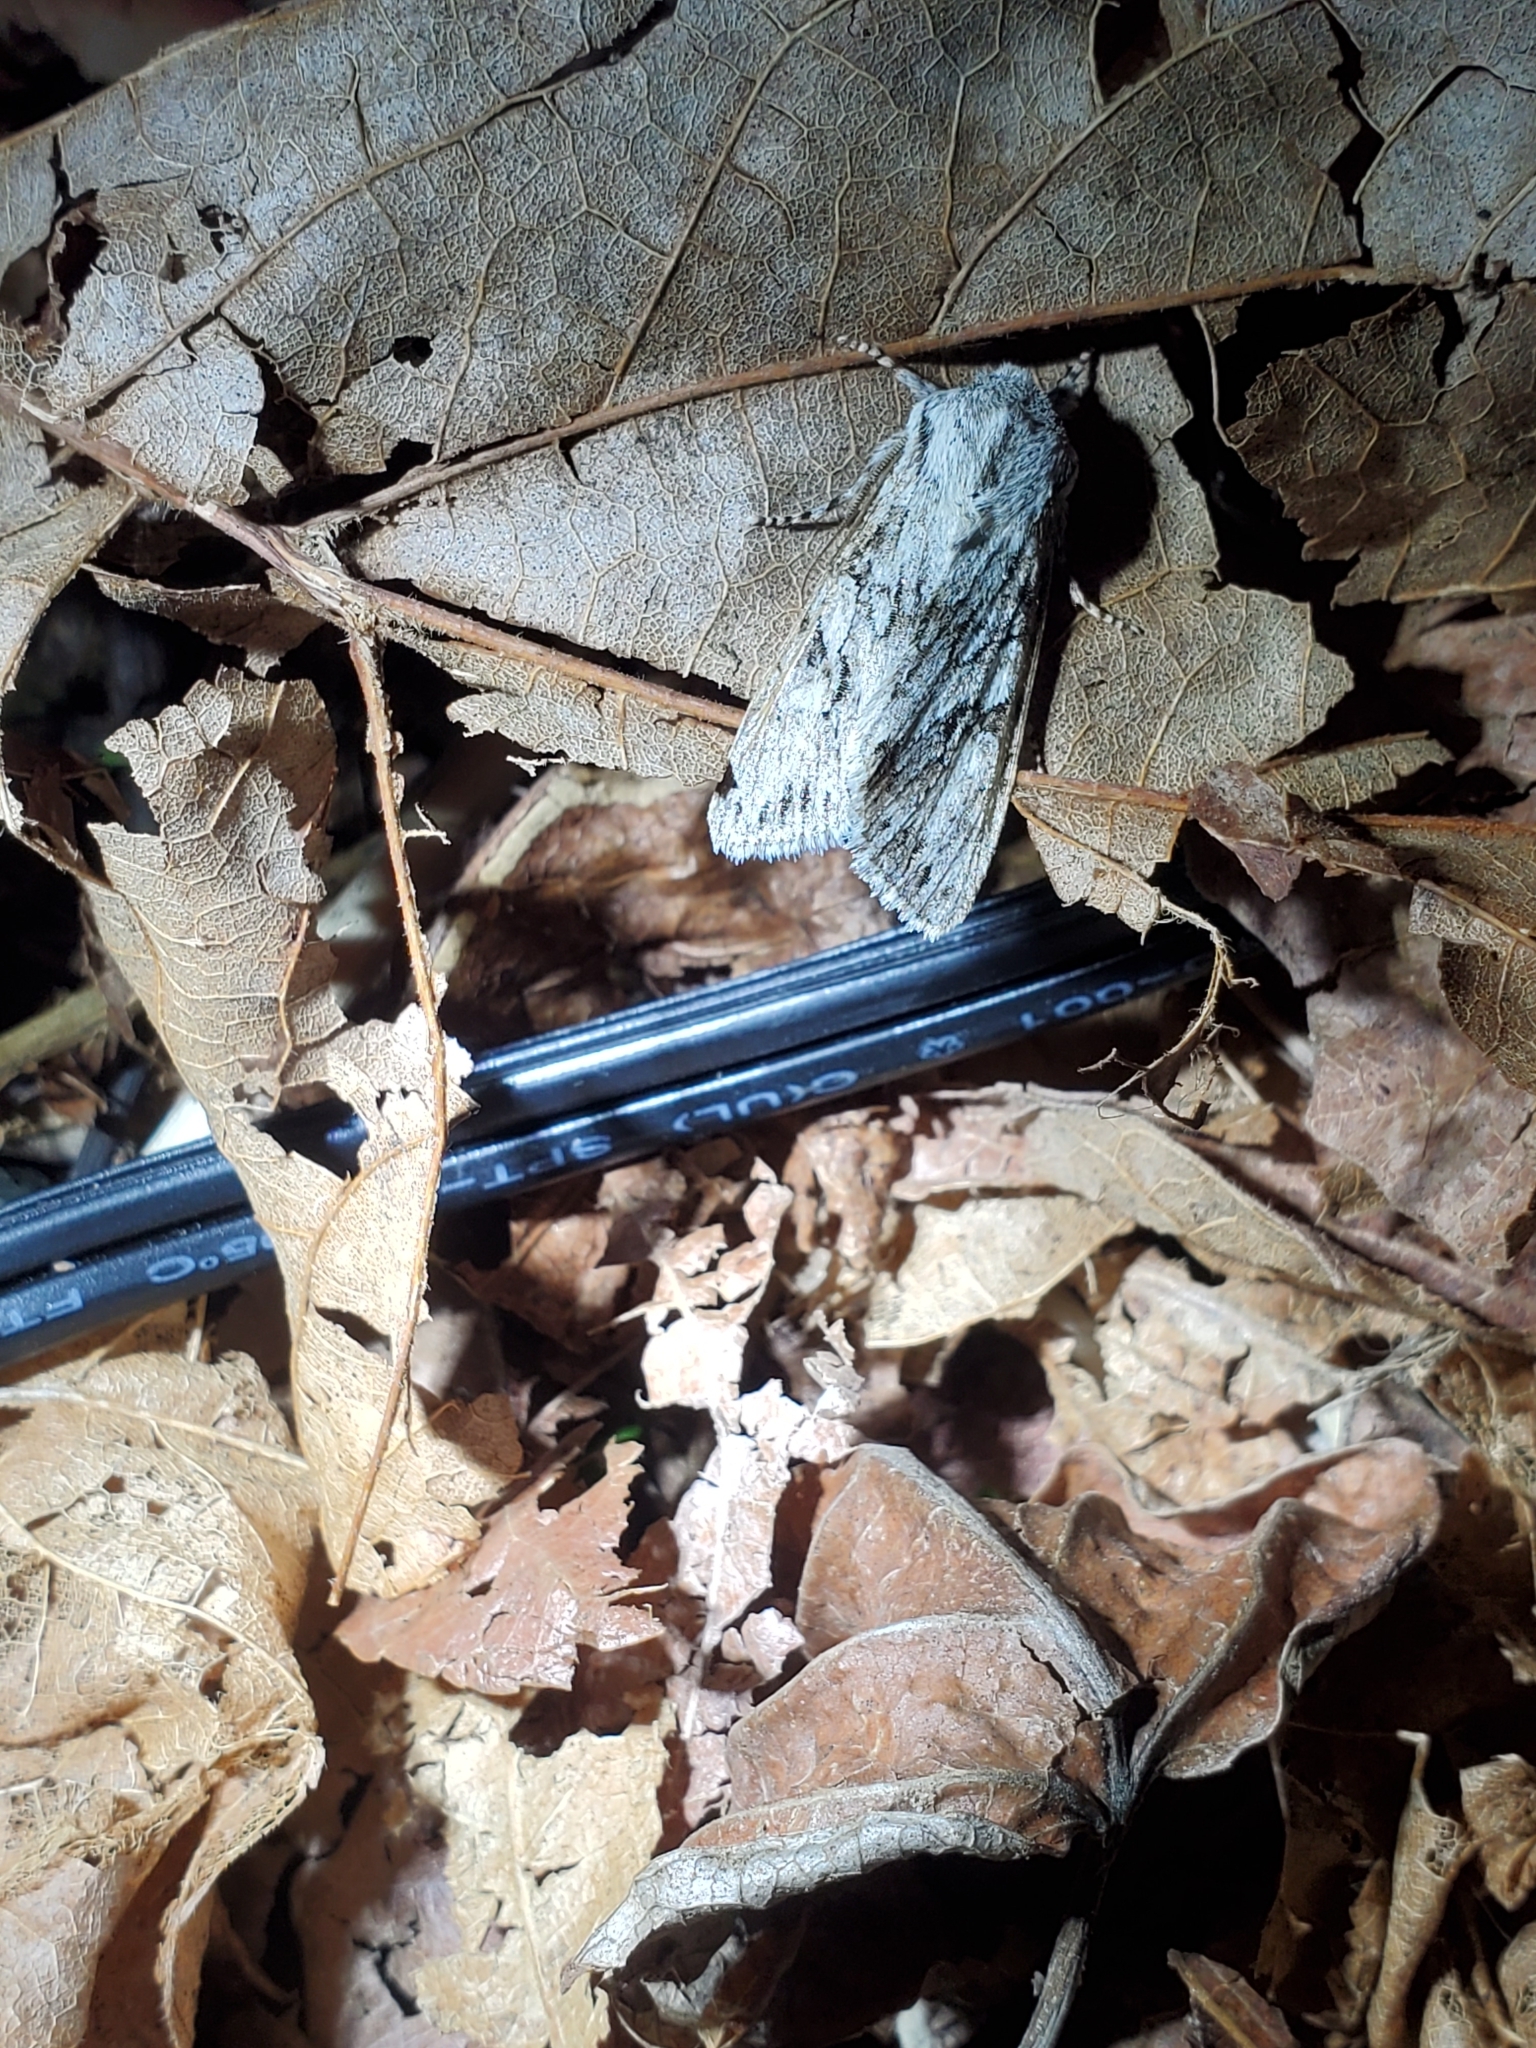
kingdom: Animalia
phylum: Arthropoda
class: Insecta
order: Lepidoptera
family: Noctuidae
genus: Egira
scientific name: Egira simplex
